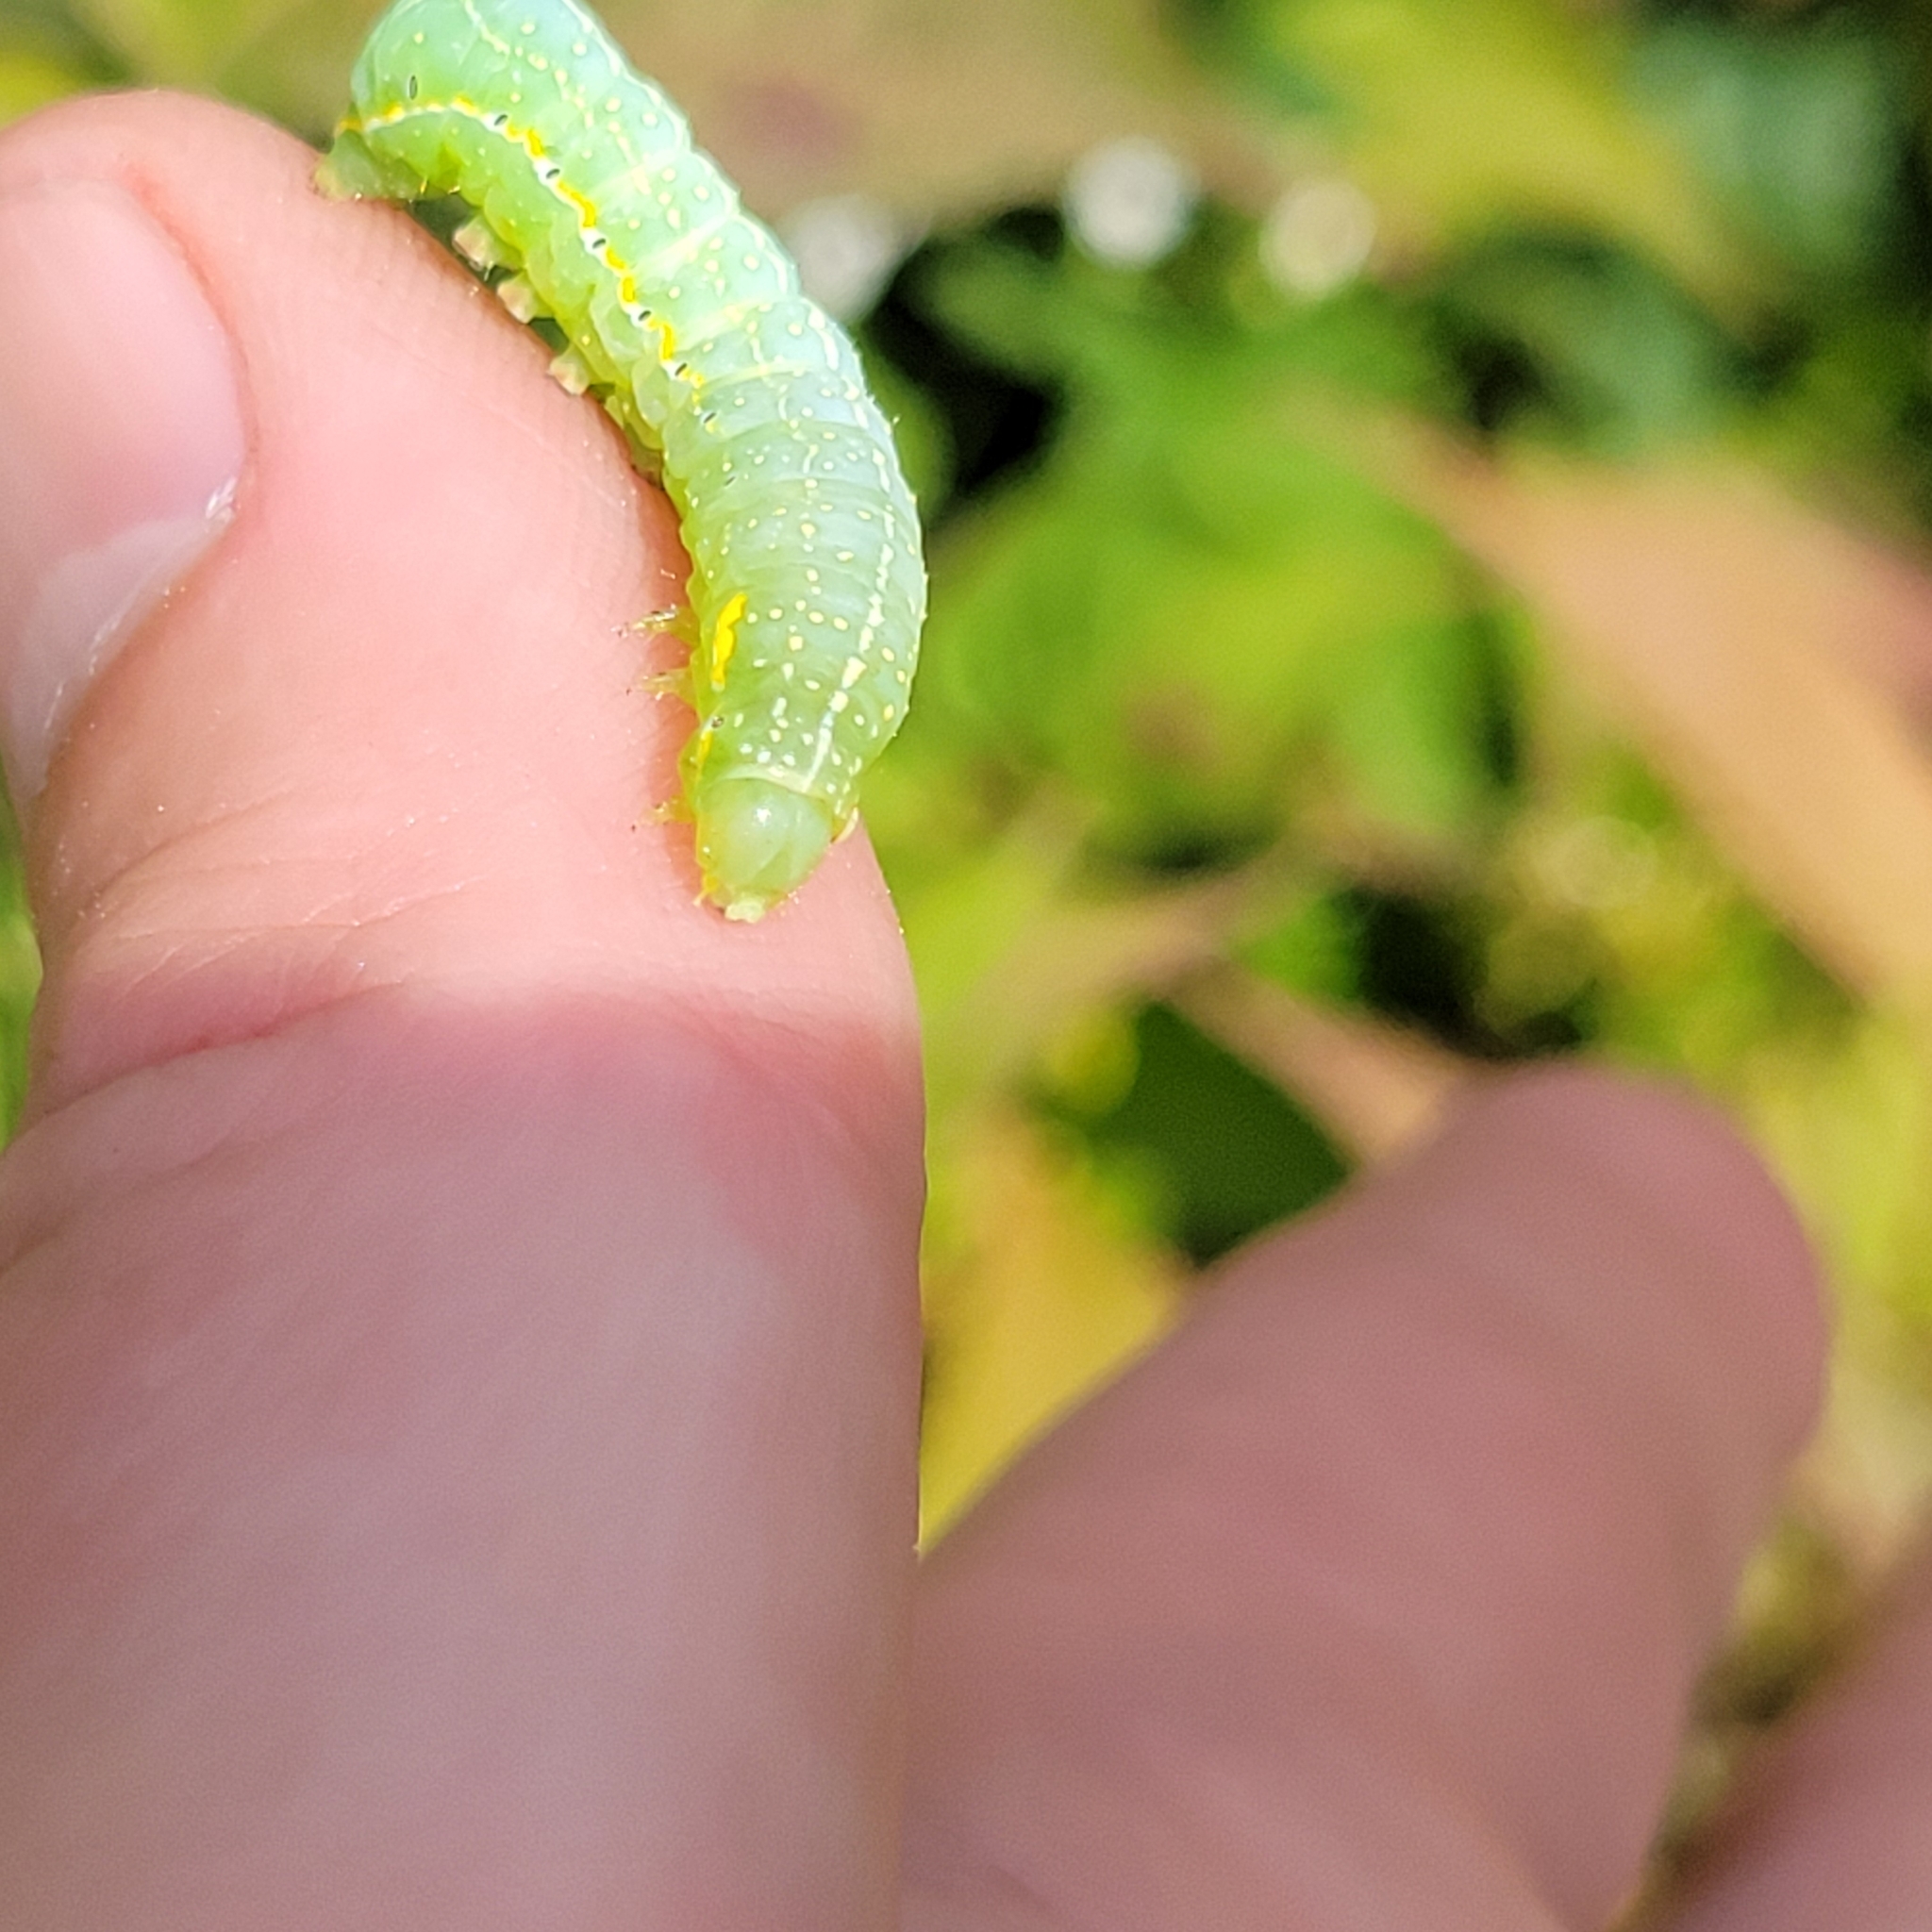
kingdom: Animalia
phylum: Arthropoda
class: Insecta
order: Lepidoptera
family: Noctuidae
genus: Amphipyra
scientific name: Amphipyra pyramidoides
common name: American copper underwing
